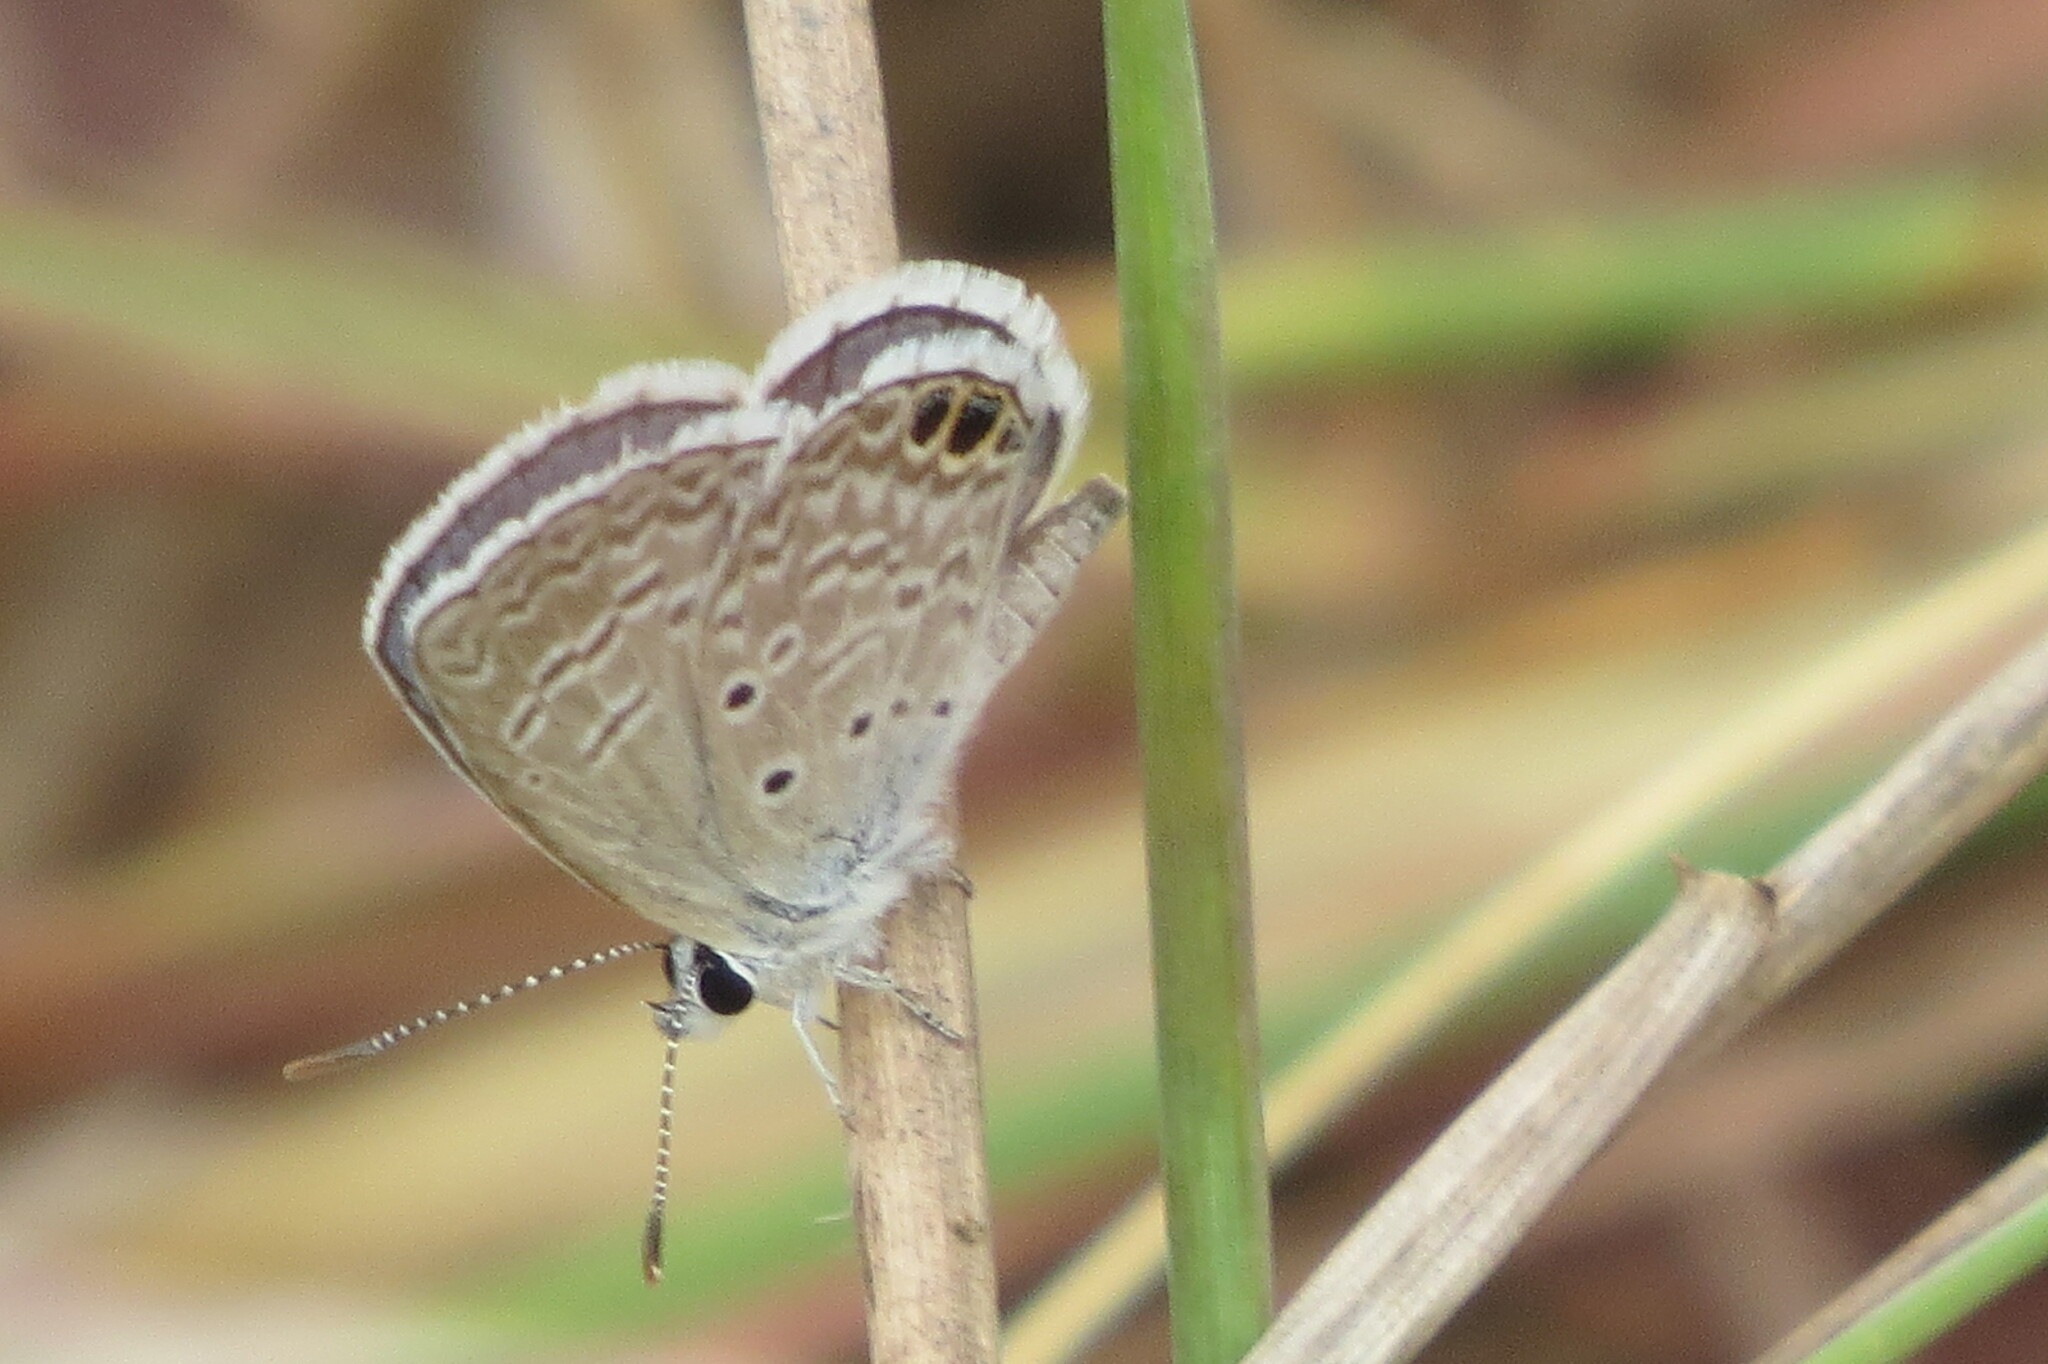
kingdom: Animalia
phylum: Arthropoda
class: Insecta
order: Lepidoptera
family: Lycaenidae
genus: Hemiargus
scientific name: Hemiargus ceraunus
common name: Ceraunus blue
